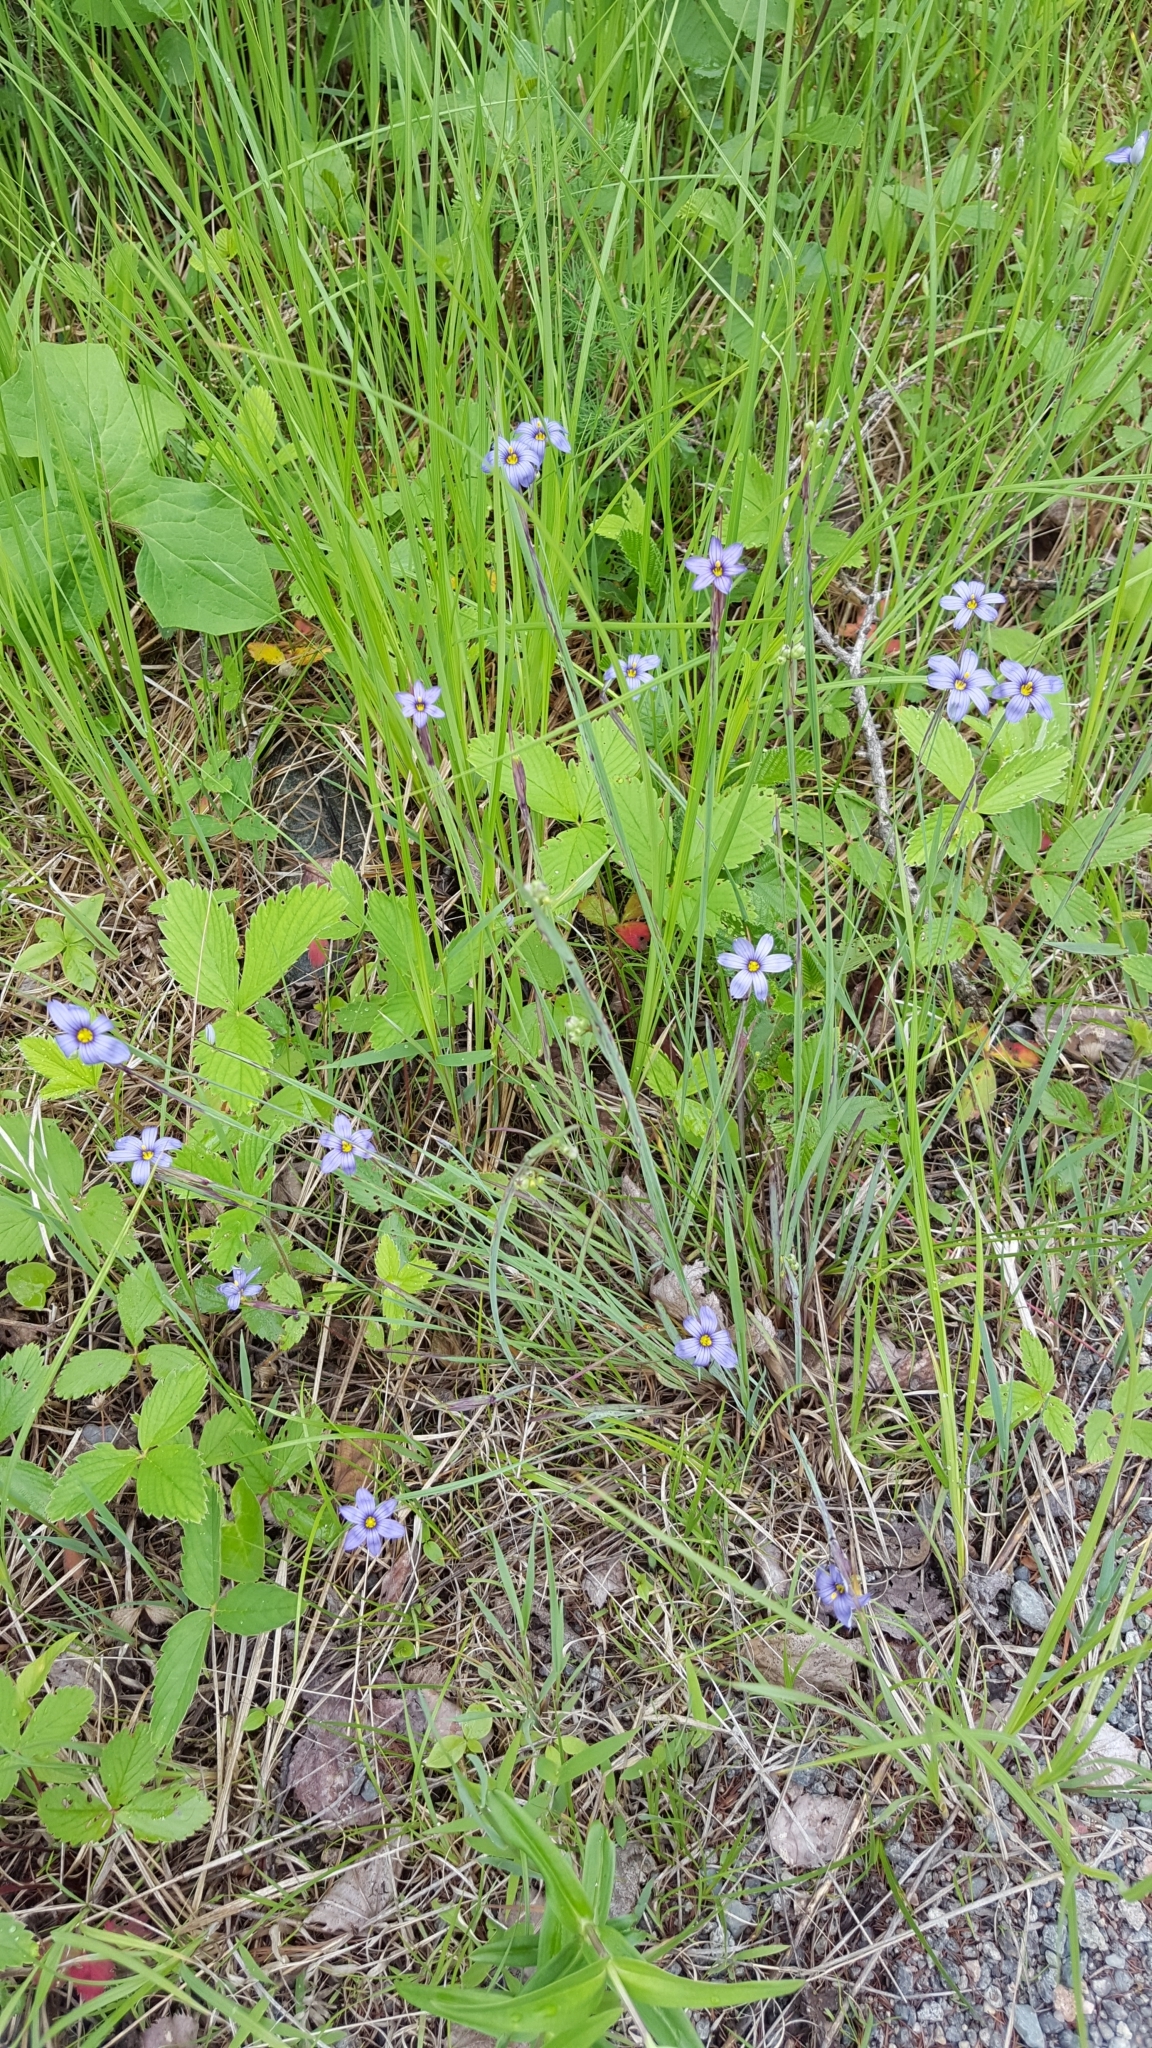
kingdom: Plantae
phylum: Tracheophyta
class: Liliopsida
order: Asparagales
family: Iridaceae
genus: Sisyrinchium
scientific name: Sisyrinchium atlanticum
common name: Eastern blue-eyed-grass
